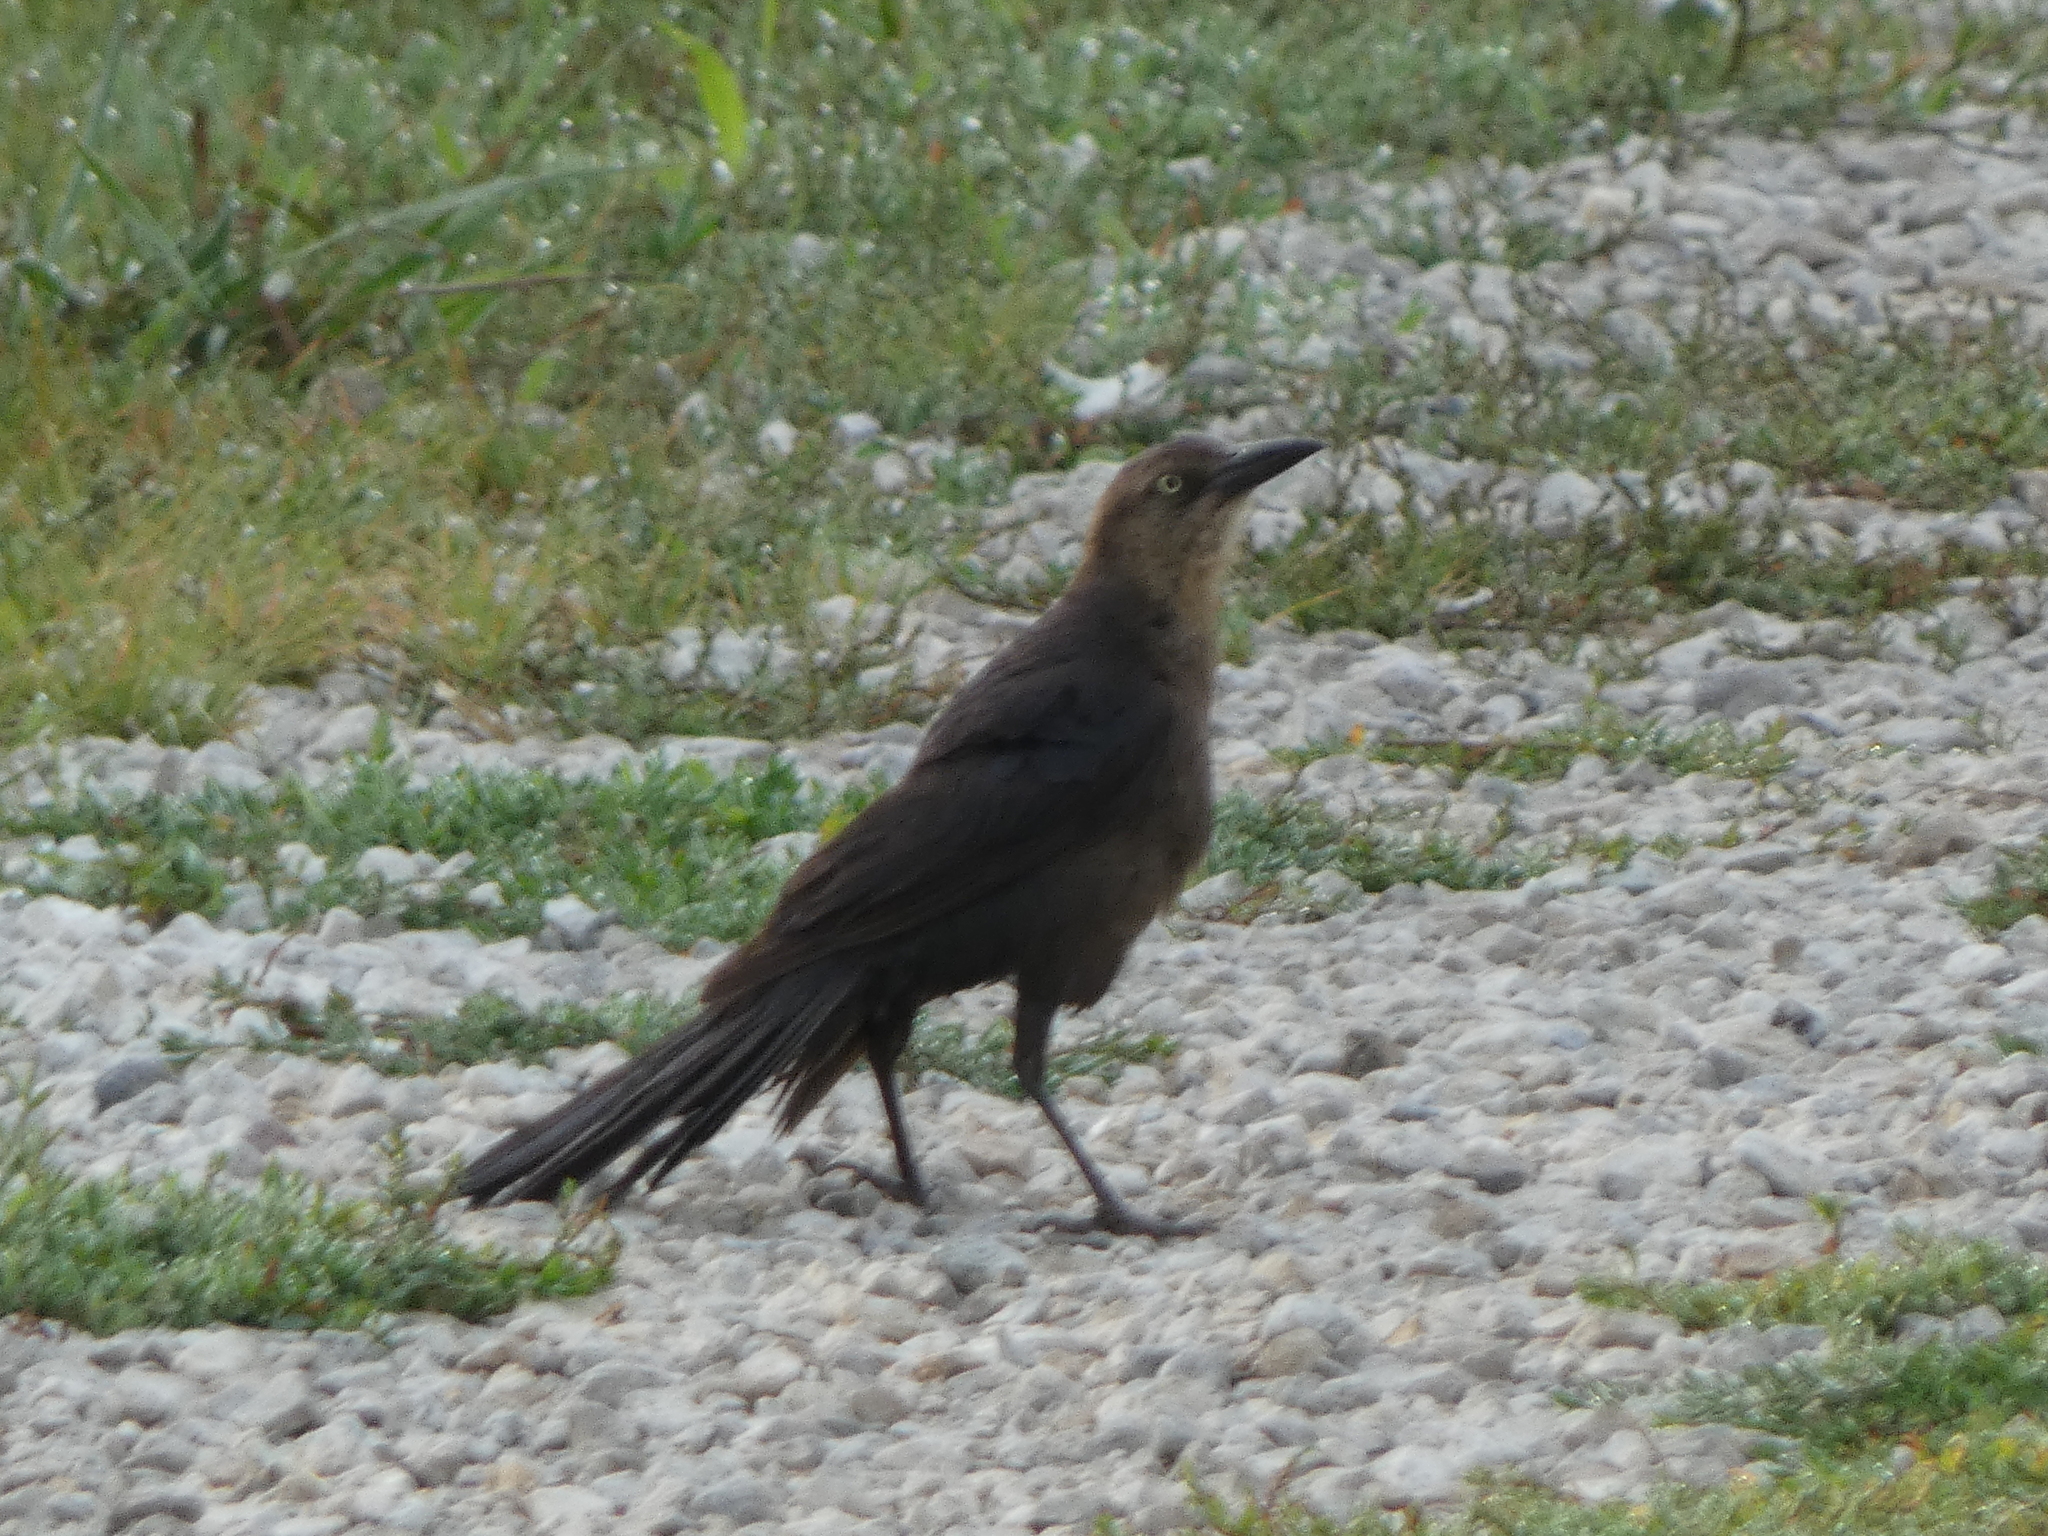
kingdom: Animalia
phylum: Chordata
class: Aves
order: Passeriformes
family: Icteridae
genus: Quiscalus
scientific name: Quiscalus mexicanus
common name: Great-tailed grackle
